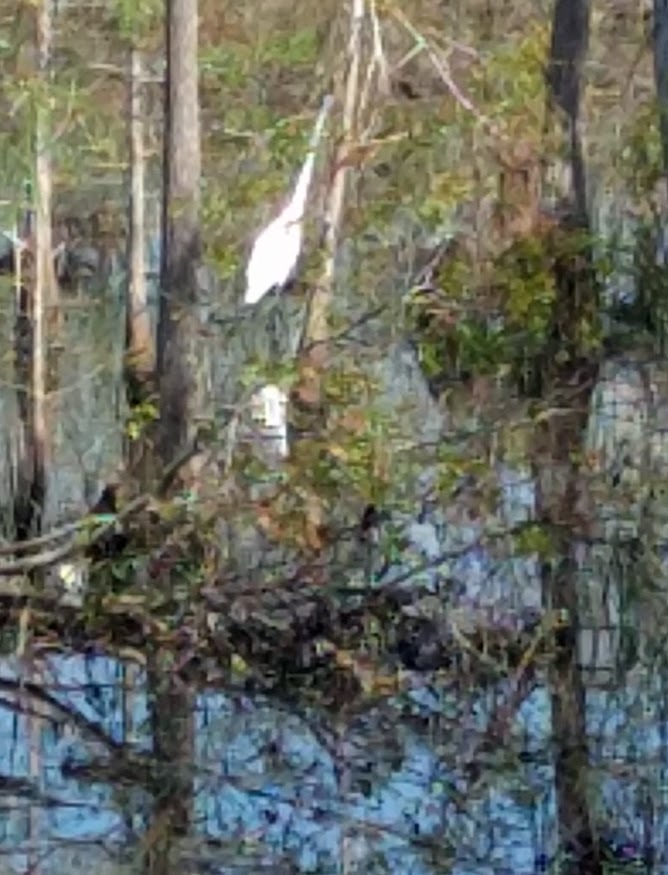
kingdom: Animalia
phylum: Chordata
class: Aves
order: Pelecaniformes
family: Ardeidae
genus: Ardea
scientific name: Ardea alba
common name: Great egret
